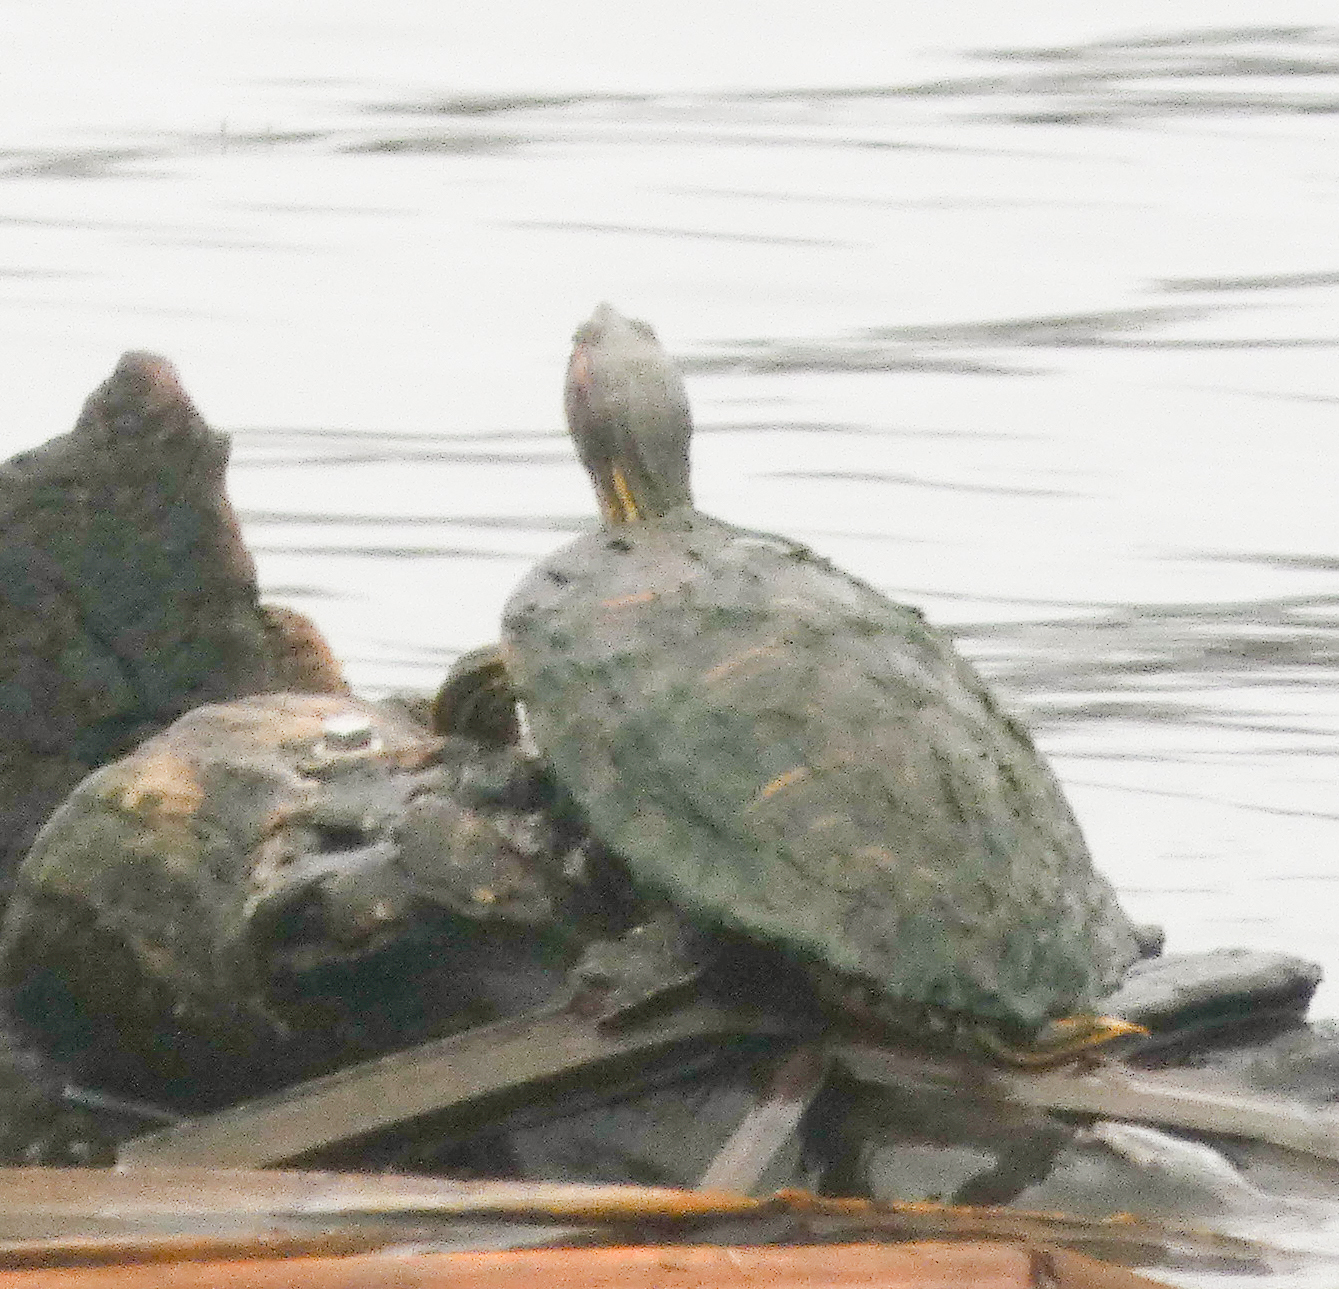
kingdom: Animalia
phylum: Chordata
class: Testudines
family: Emydidae
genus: Trachemys
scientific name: Trachemys scripta
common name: Slider
